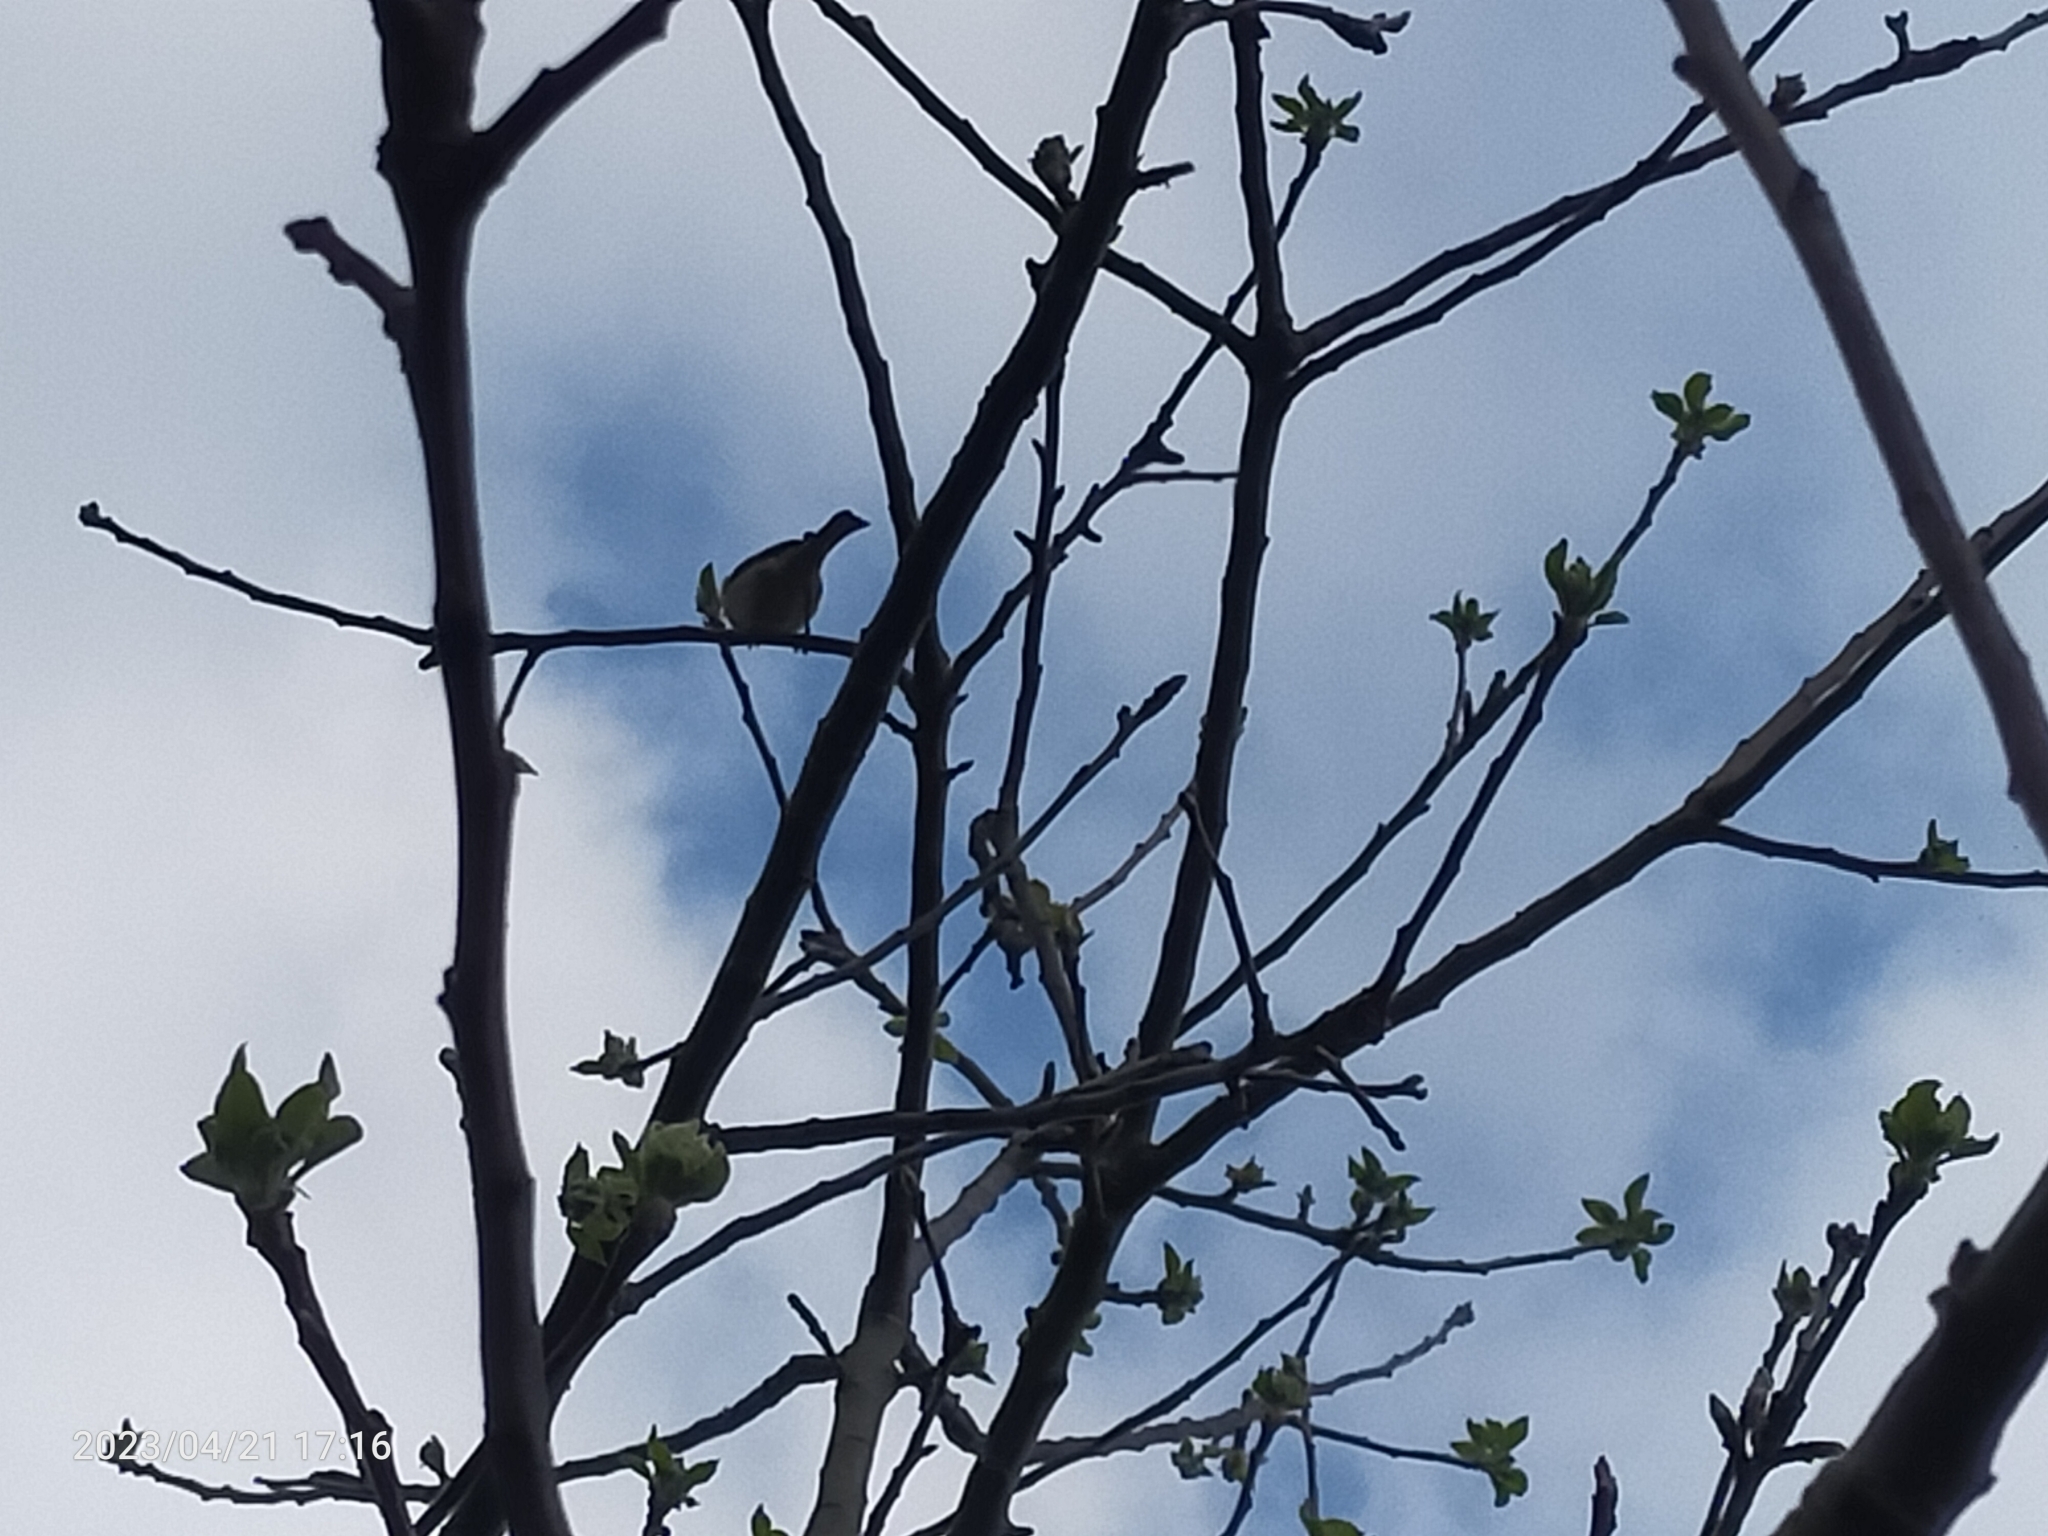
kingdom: Animalia
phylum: Chordata
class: Aves
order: Passeriformes
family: Passeridae
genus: Passer
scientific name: Passer domesticus
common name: House sparrow
